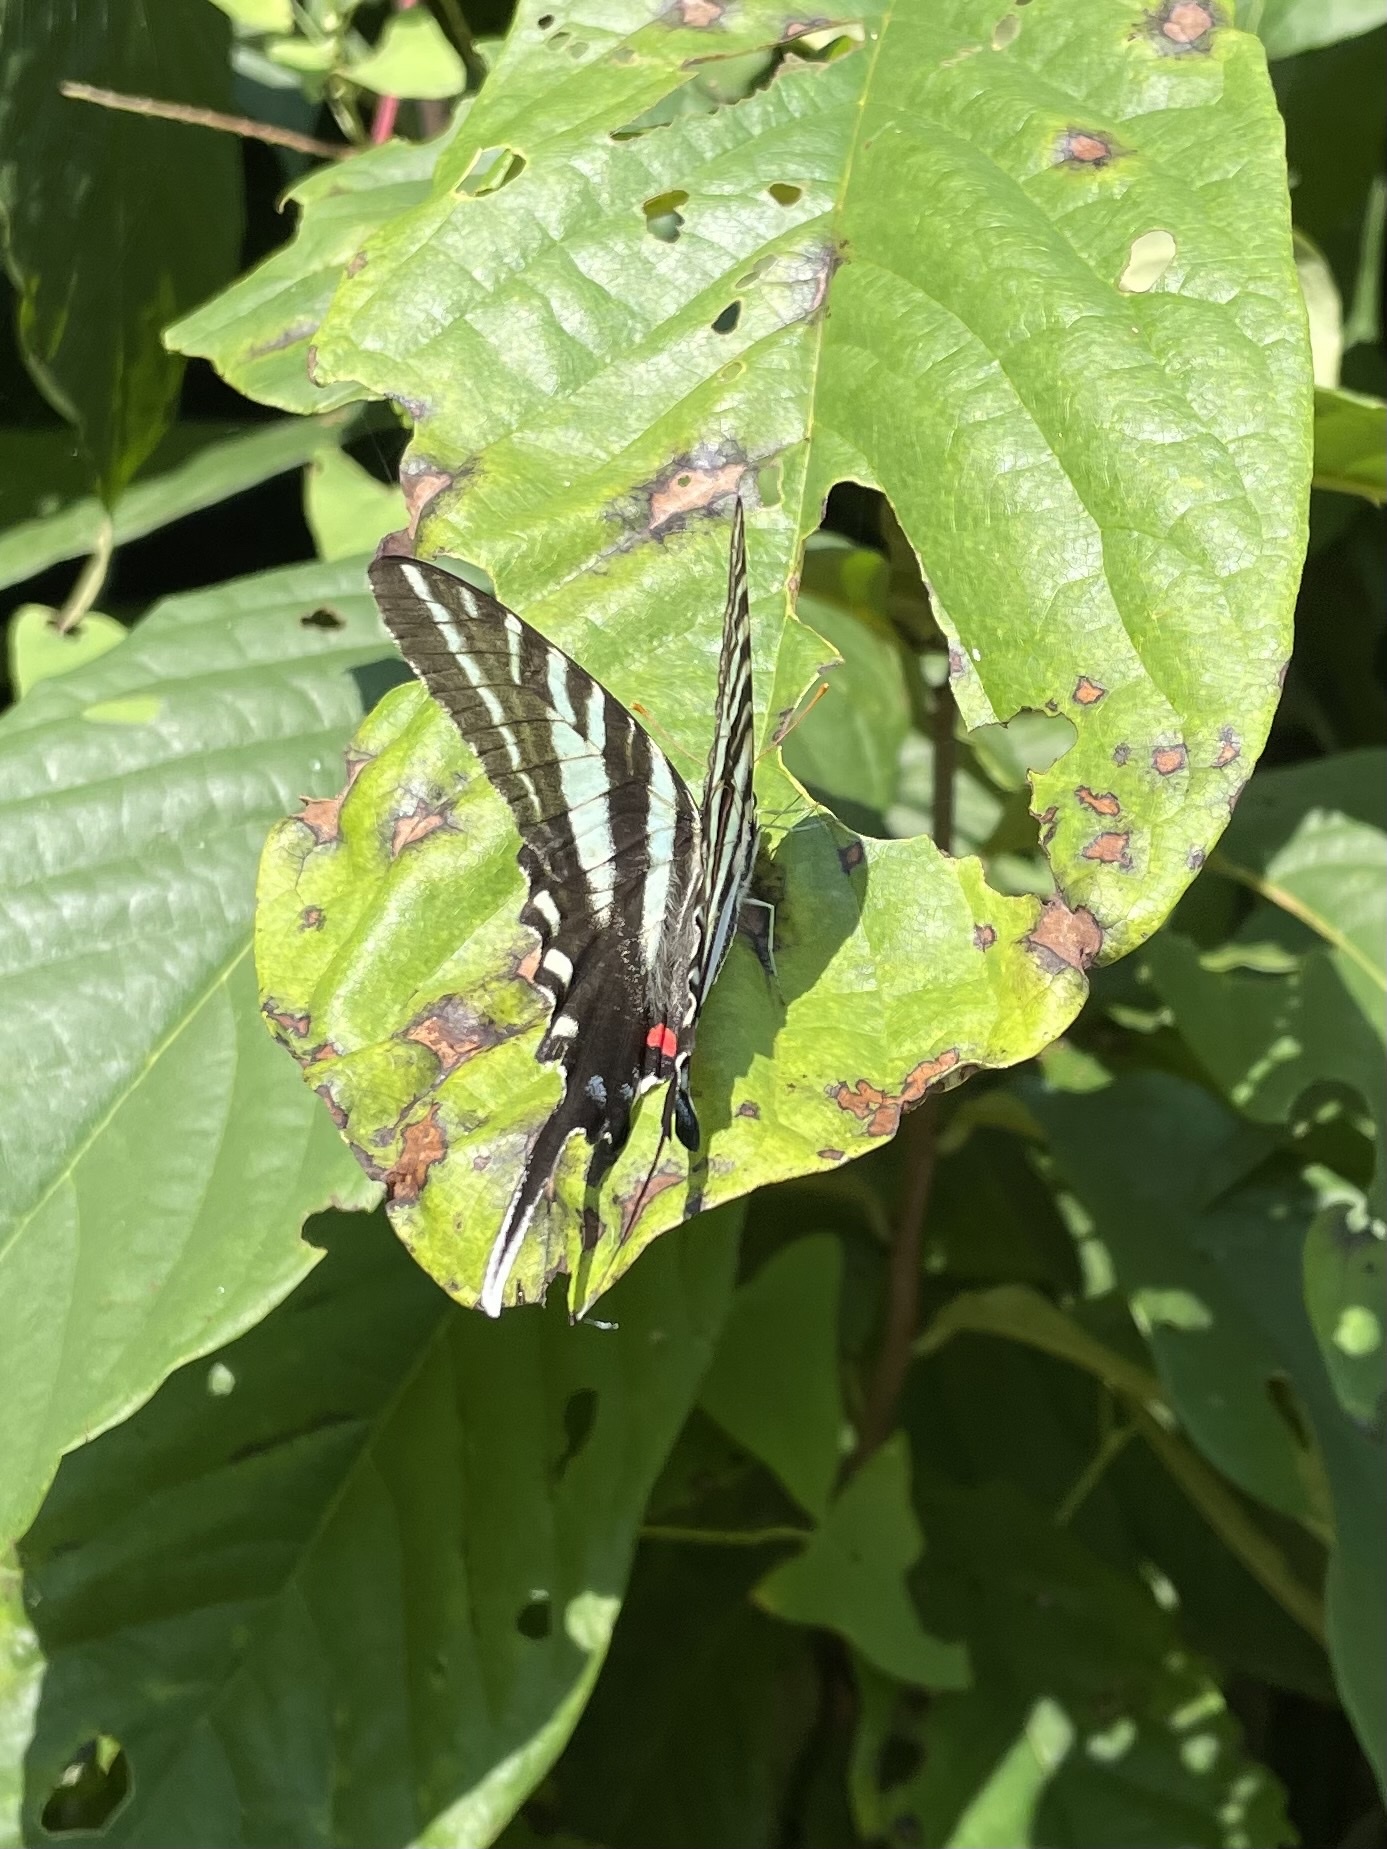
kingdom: Animalia
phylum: Arthropoda
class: Insecta
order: Lepidoptera
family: Papilionidae
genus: Protographium
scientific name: Protographium marcellus
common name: Zebra swallowtail
